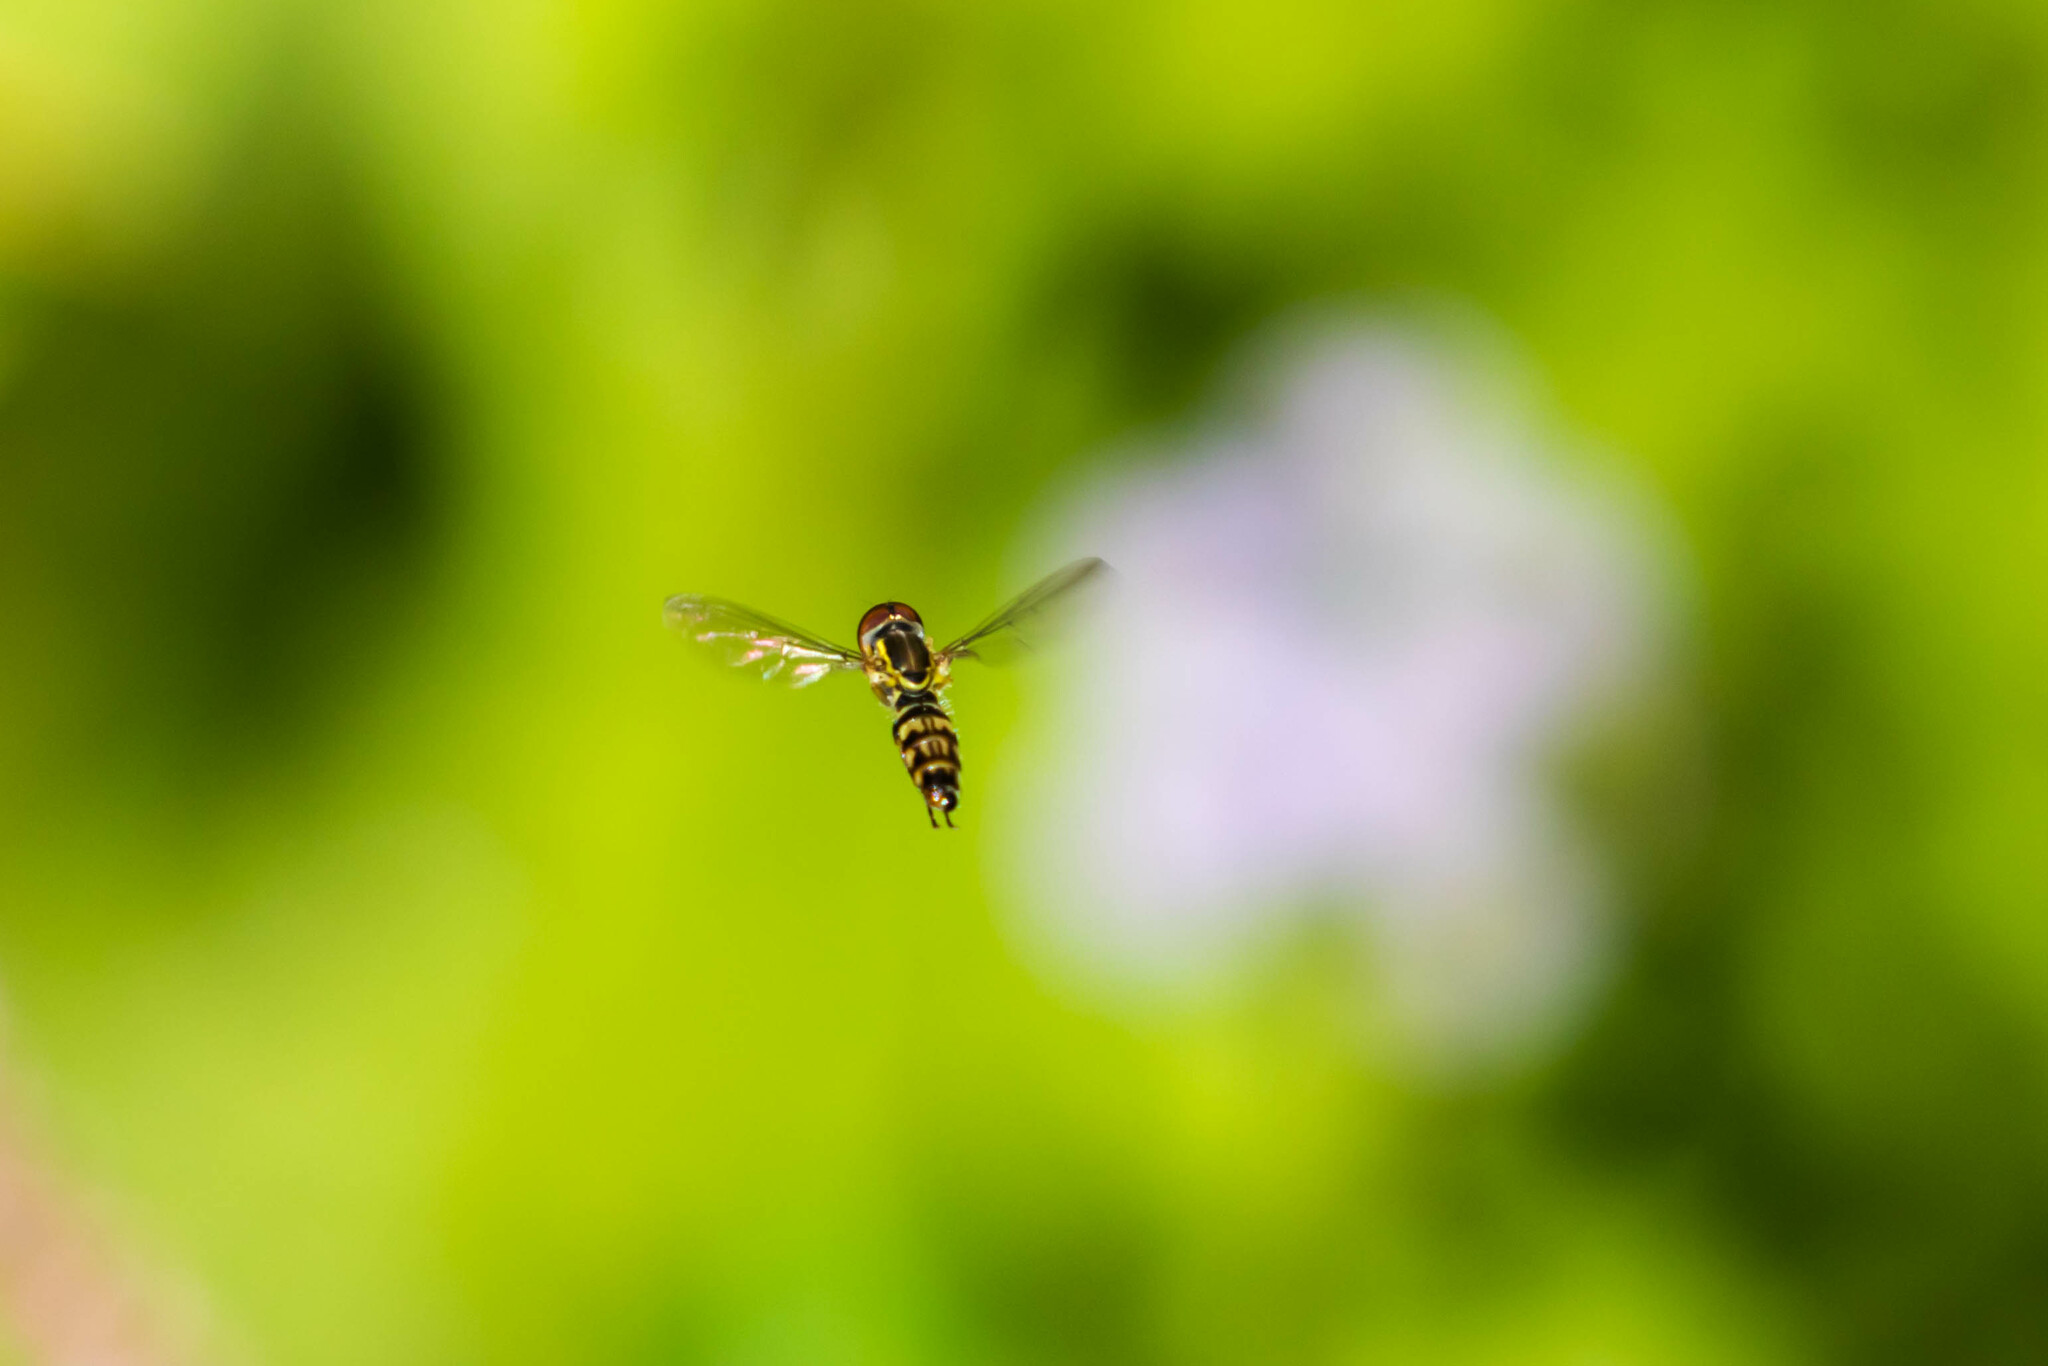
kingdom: Animalia
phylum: Arthropoda
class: Insecta
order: Diptera
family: Syrphidae
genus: Toxomerus
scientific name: Toxomerus geminatus
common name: Eastern calligrapher
